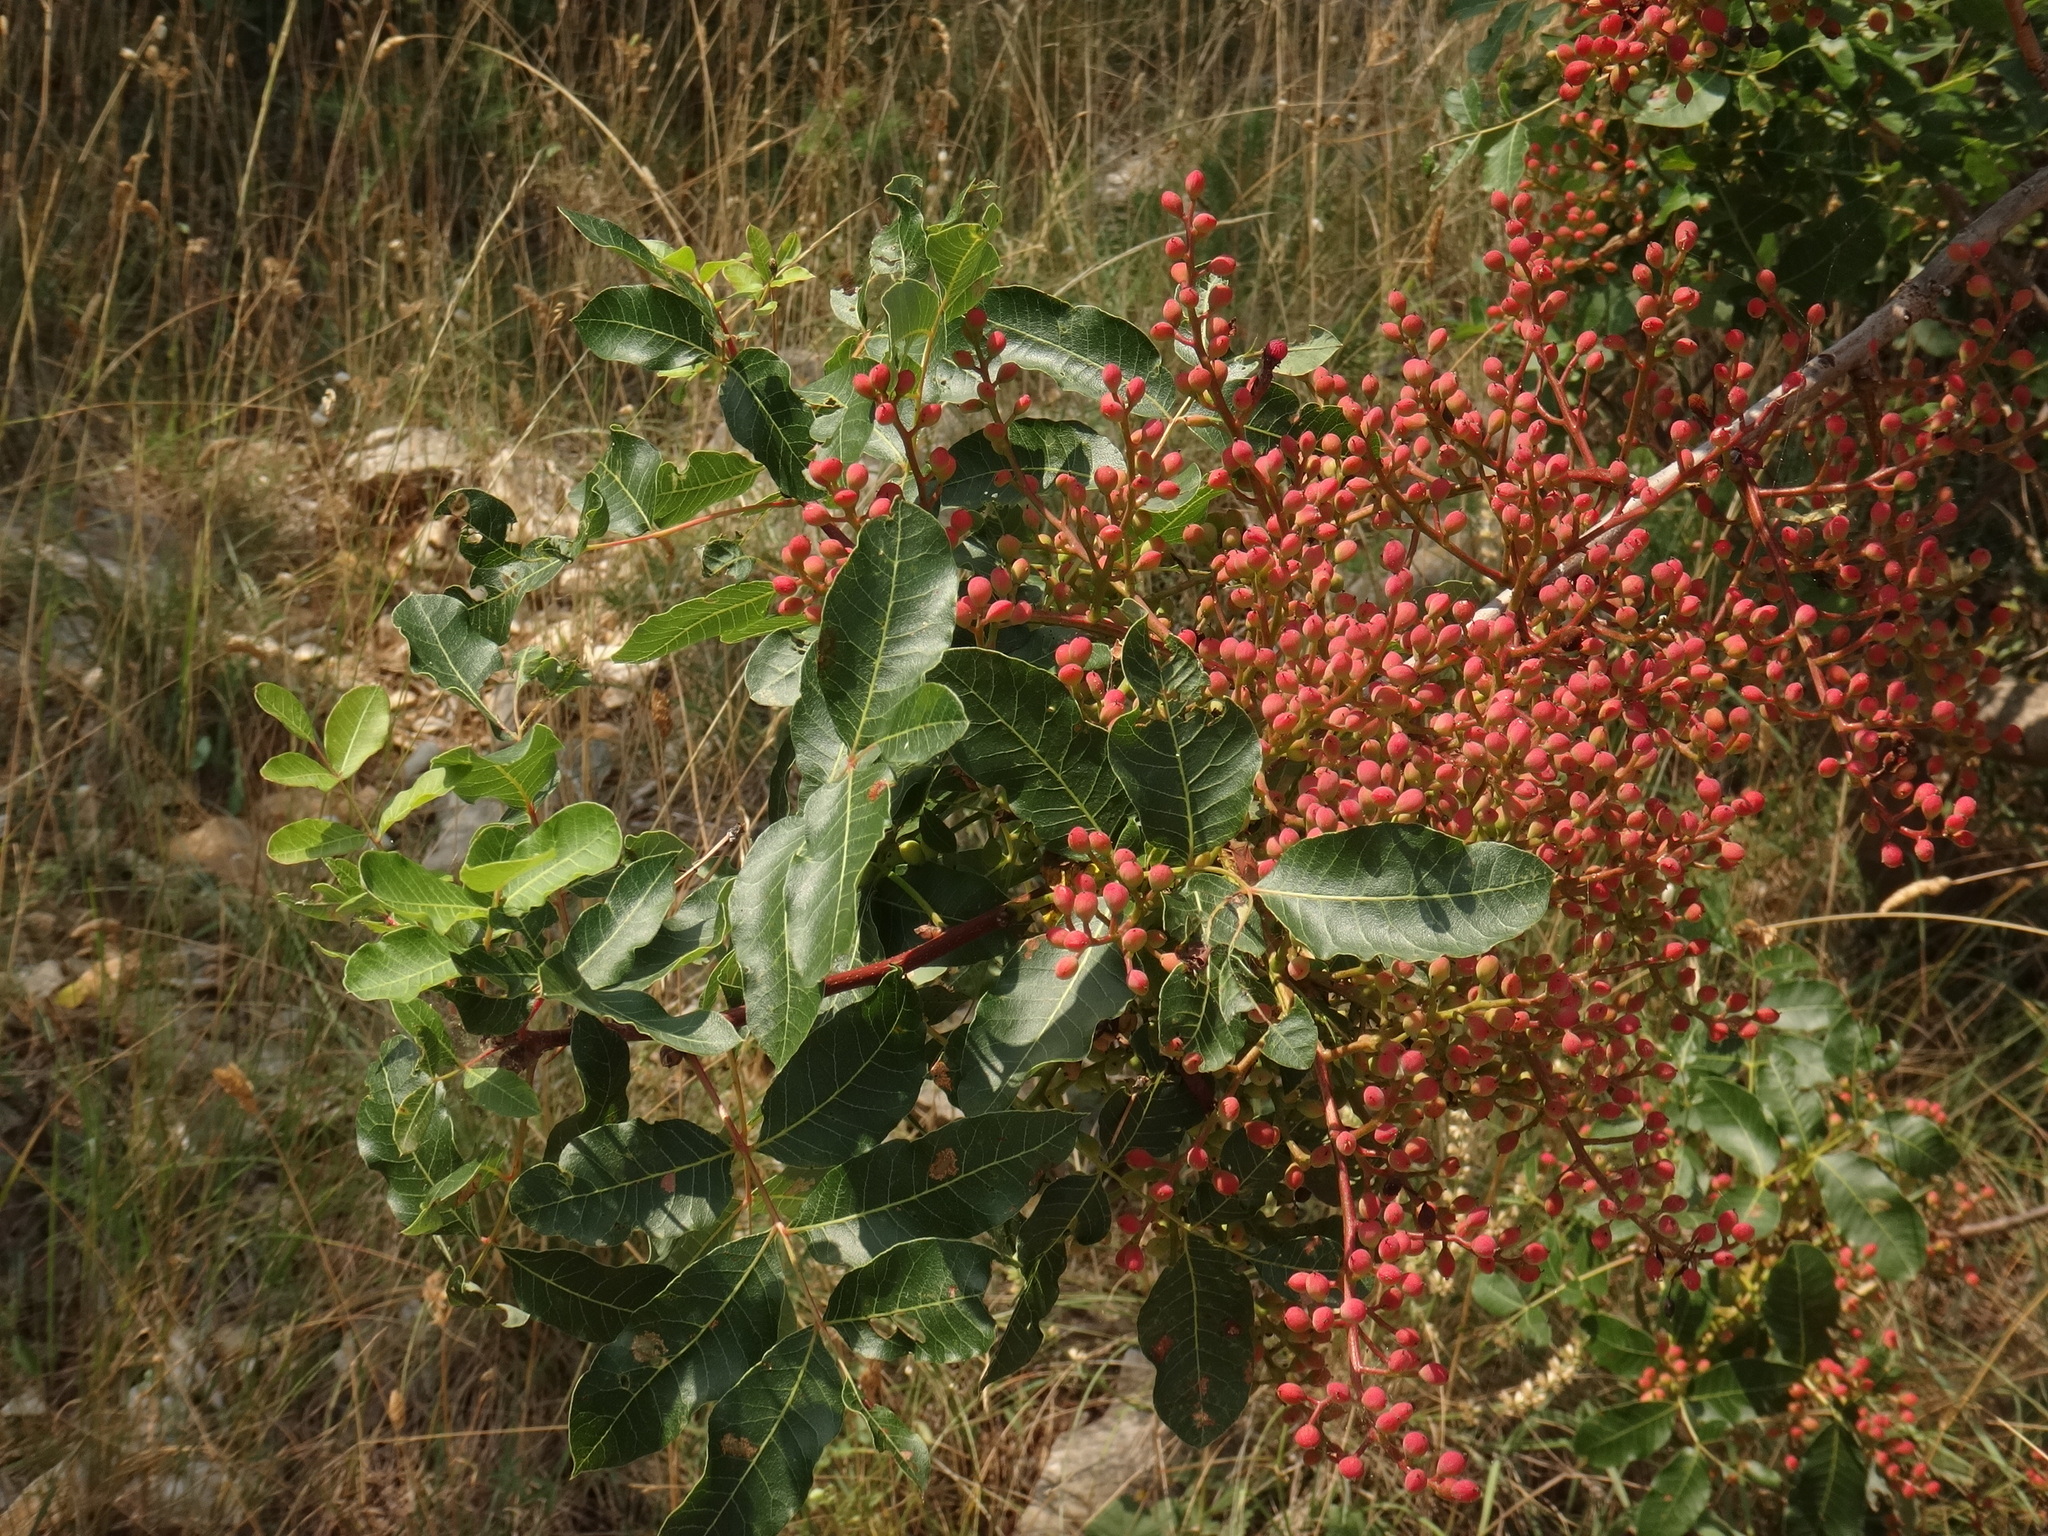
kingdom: Plantae
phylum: Tracheophyta
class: Magnoliopsida
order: Sapindales
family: Anacardiaceae
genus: Pistacia
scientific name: Pistacia terebinthus
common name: Terebinth
